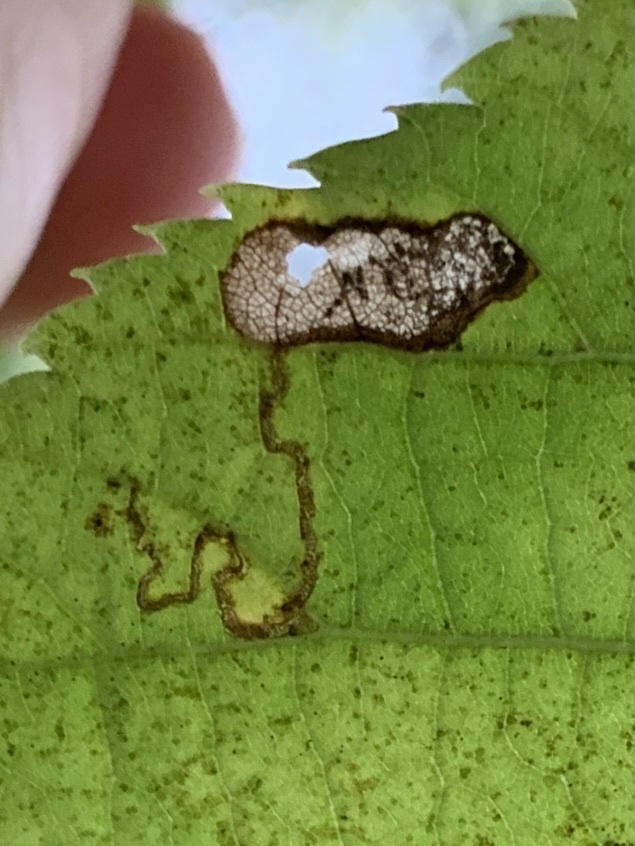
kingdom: Animalia
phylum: Arthropoda
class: Insecta
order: Lepidoptera
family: Nepticulidae
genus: Stigmella
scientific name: Stigmella argentifasciella
